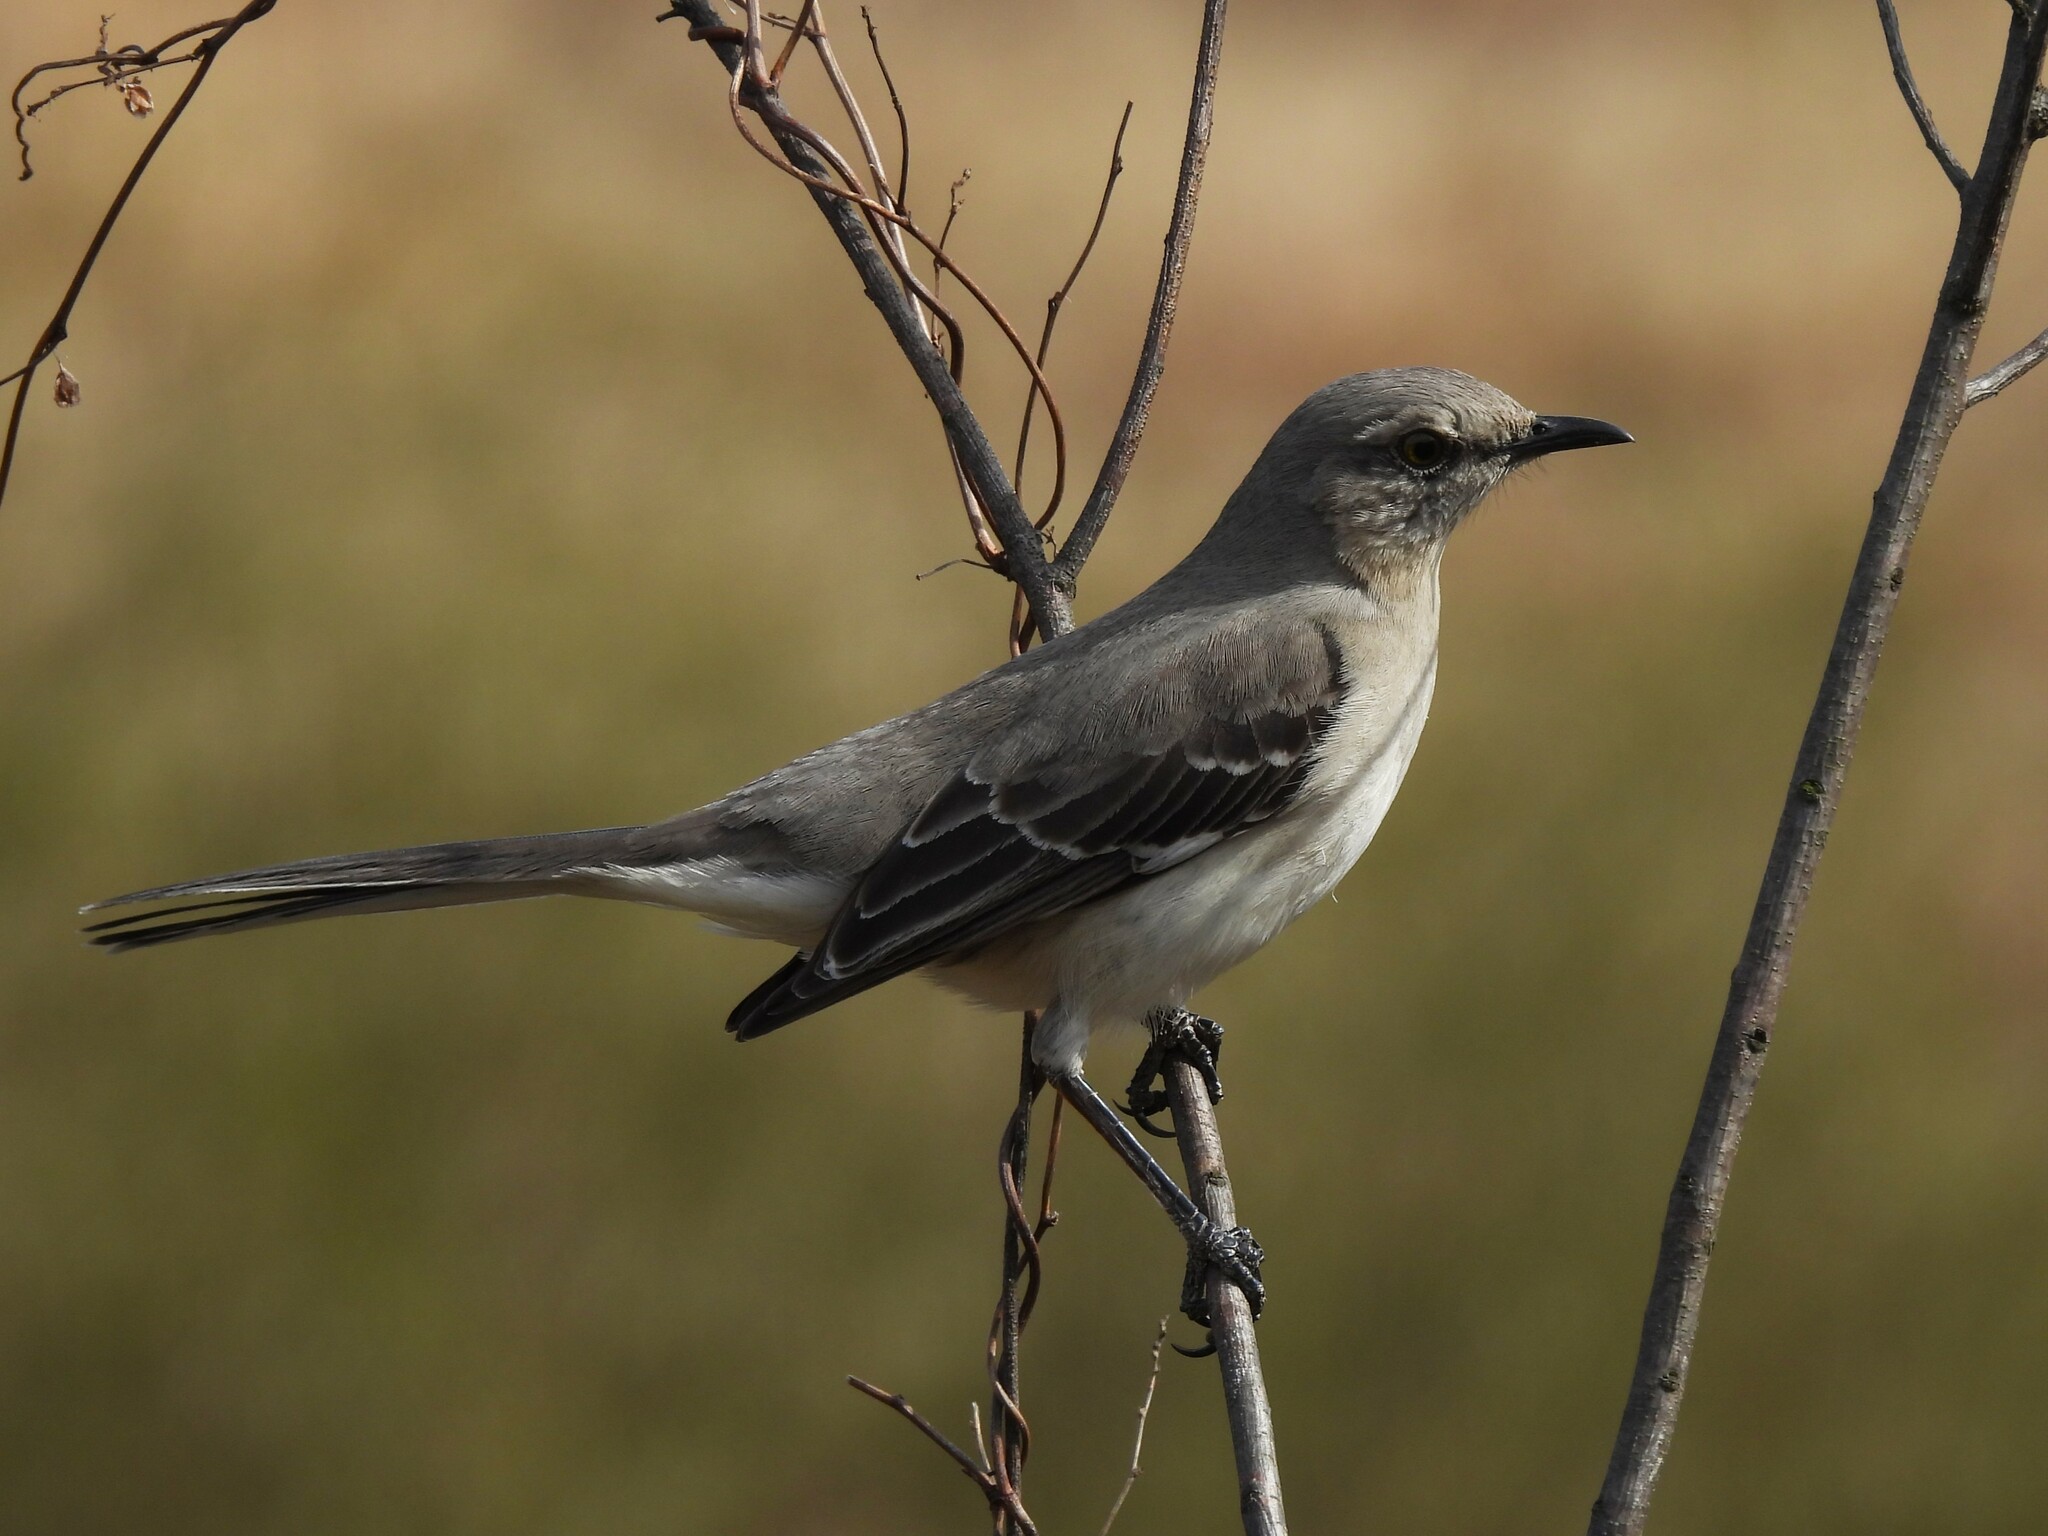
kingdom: Animalia
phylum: Chordata
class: Aves
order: Passeriformes
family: Mimidae
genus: Mimus
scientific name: Mimus polyglottos
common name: Northern mockingbird
